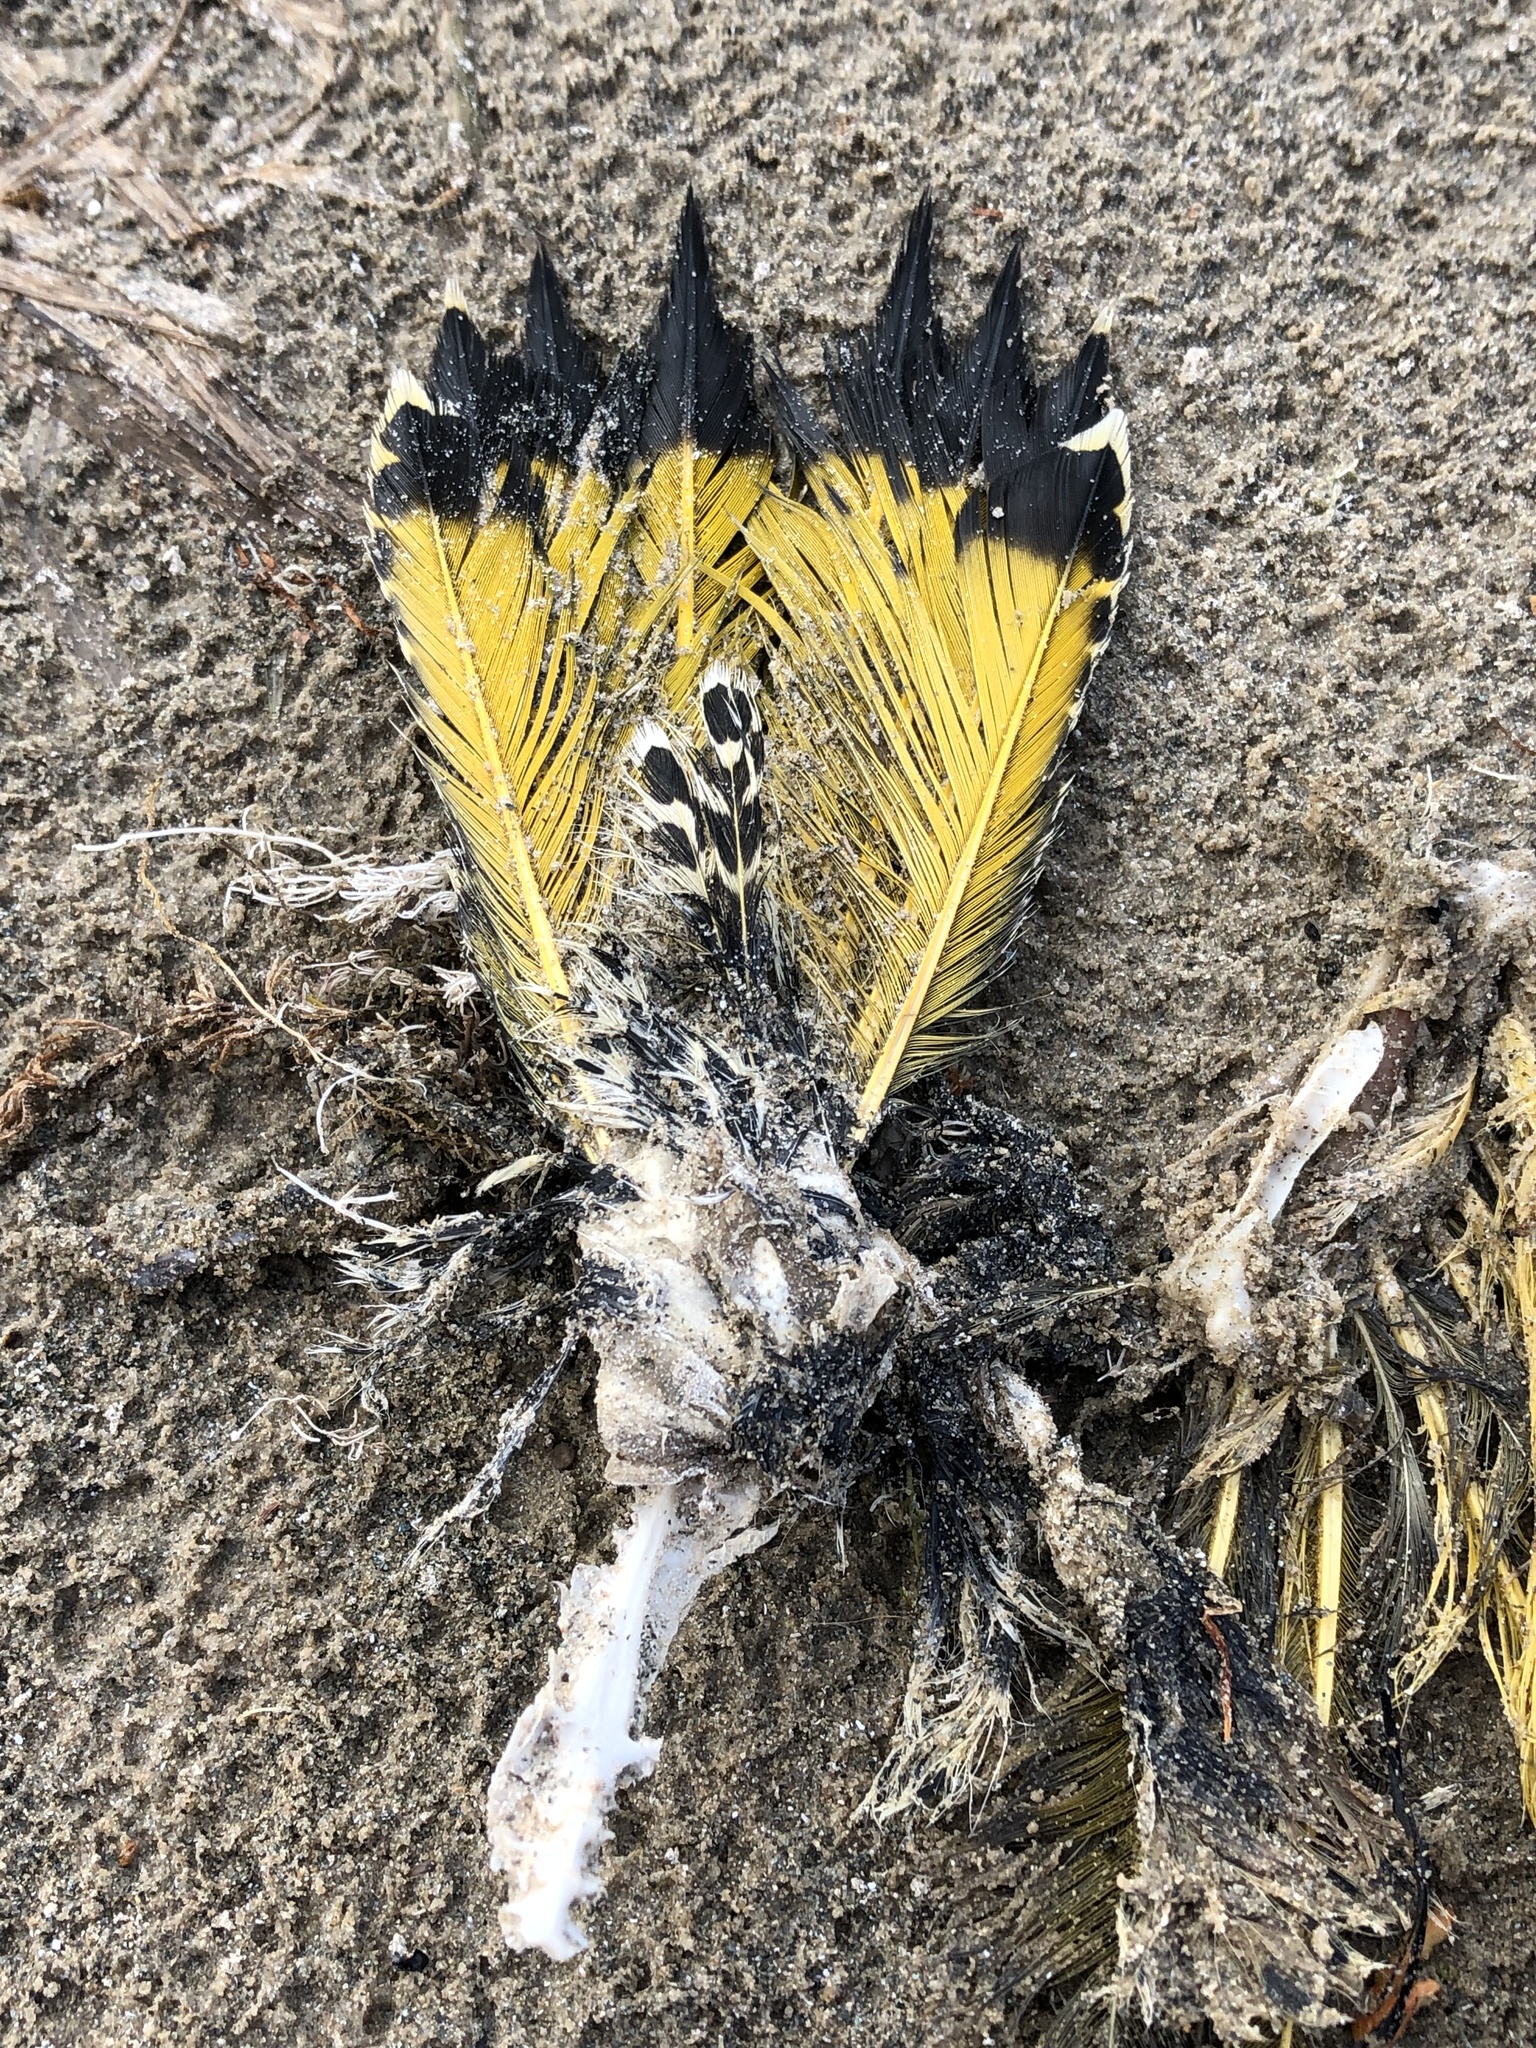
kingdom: Animalia
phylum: Chordata
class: Aves
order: Piciformes
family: Picidae
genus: Colaptes
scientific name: Colaptes auratus
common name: Northern flicker
